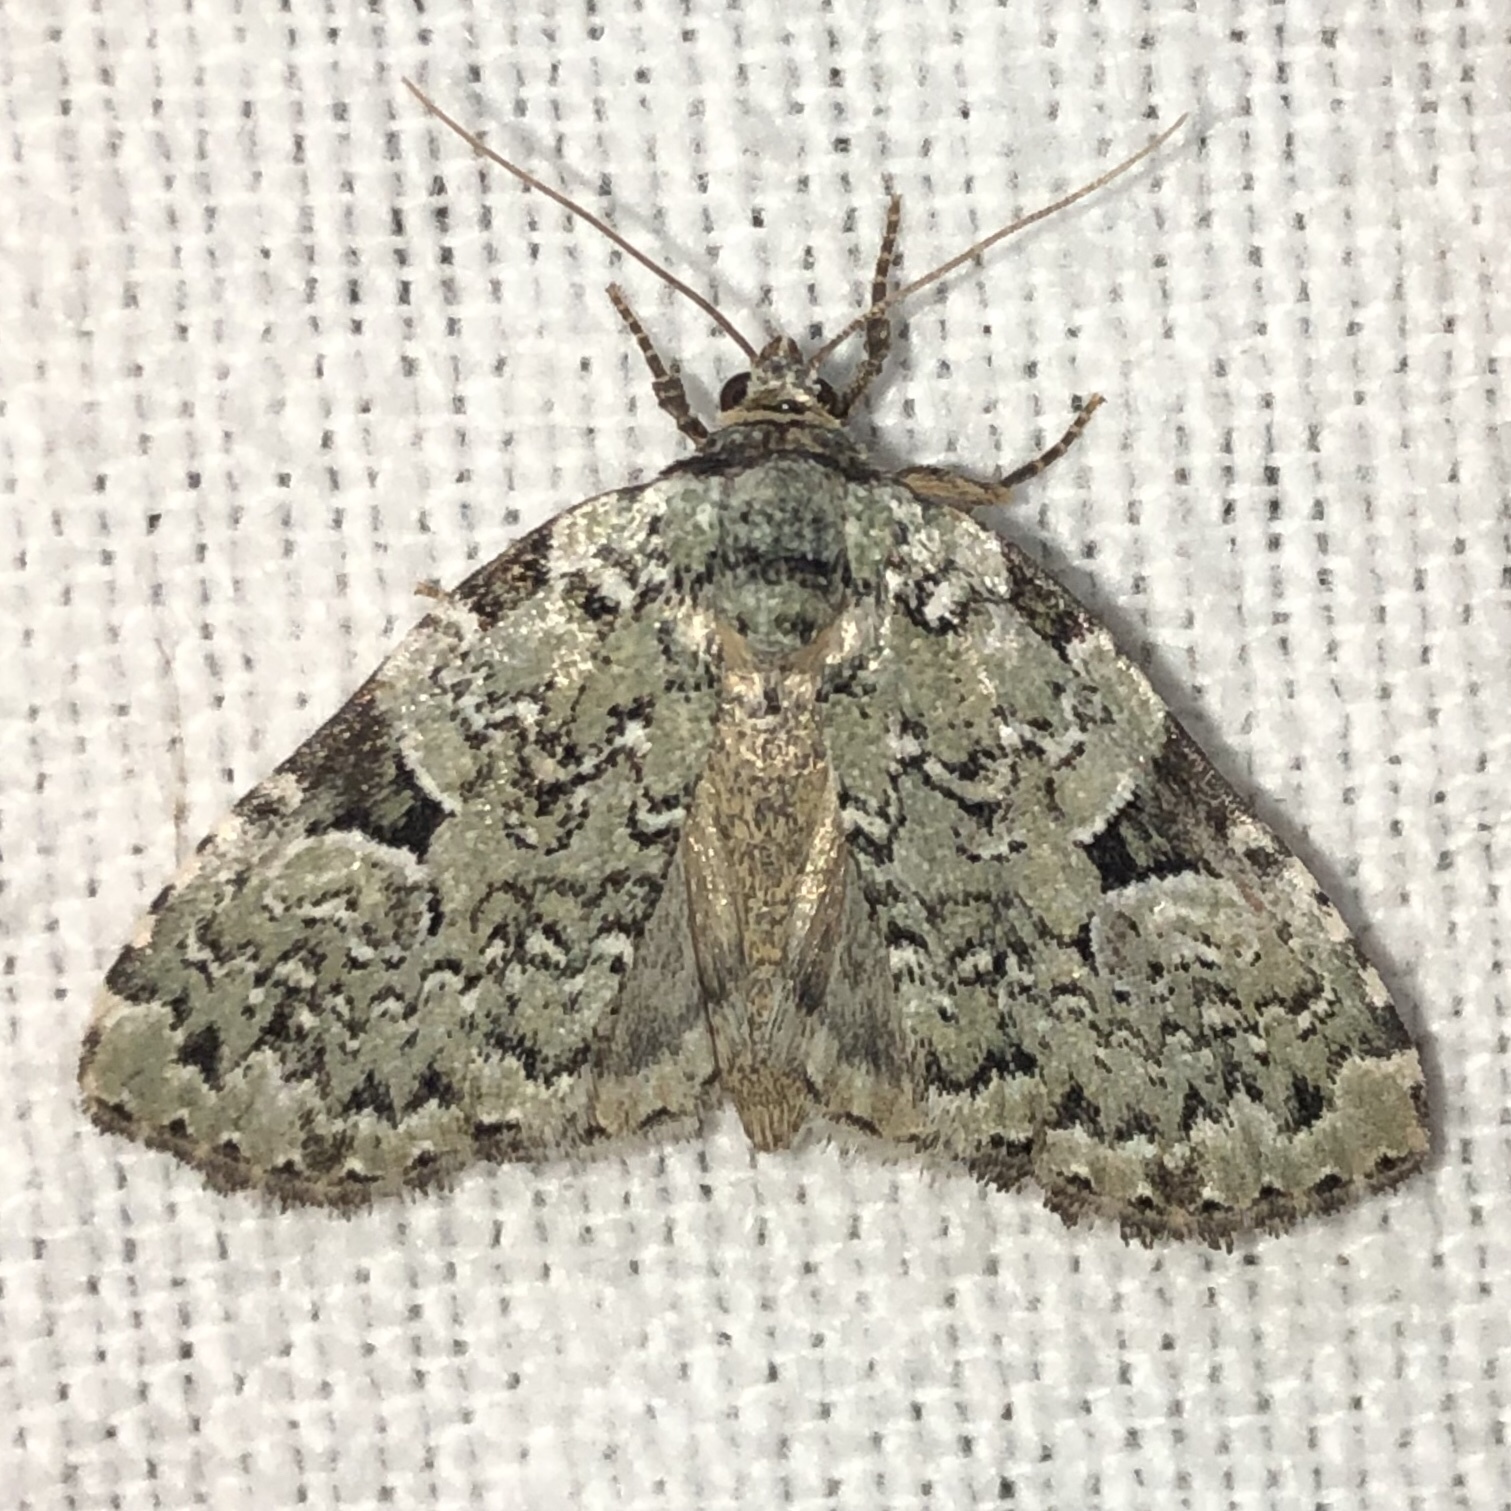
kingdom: Animalia
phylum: Arthropoda
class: Insecta
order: Lepidoptera
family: Noctuidae
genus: Leuconycta
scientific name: Leuconycta diphteroides
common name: Green leuconycta moth
